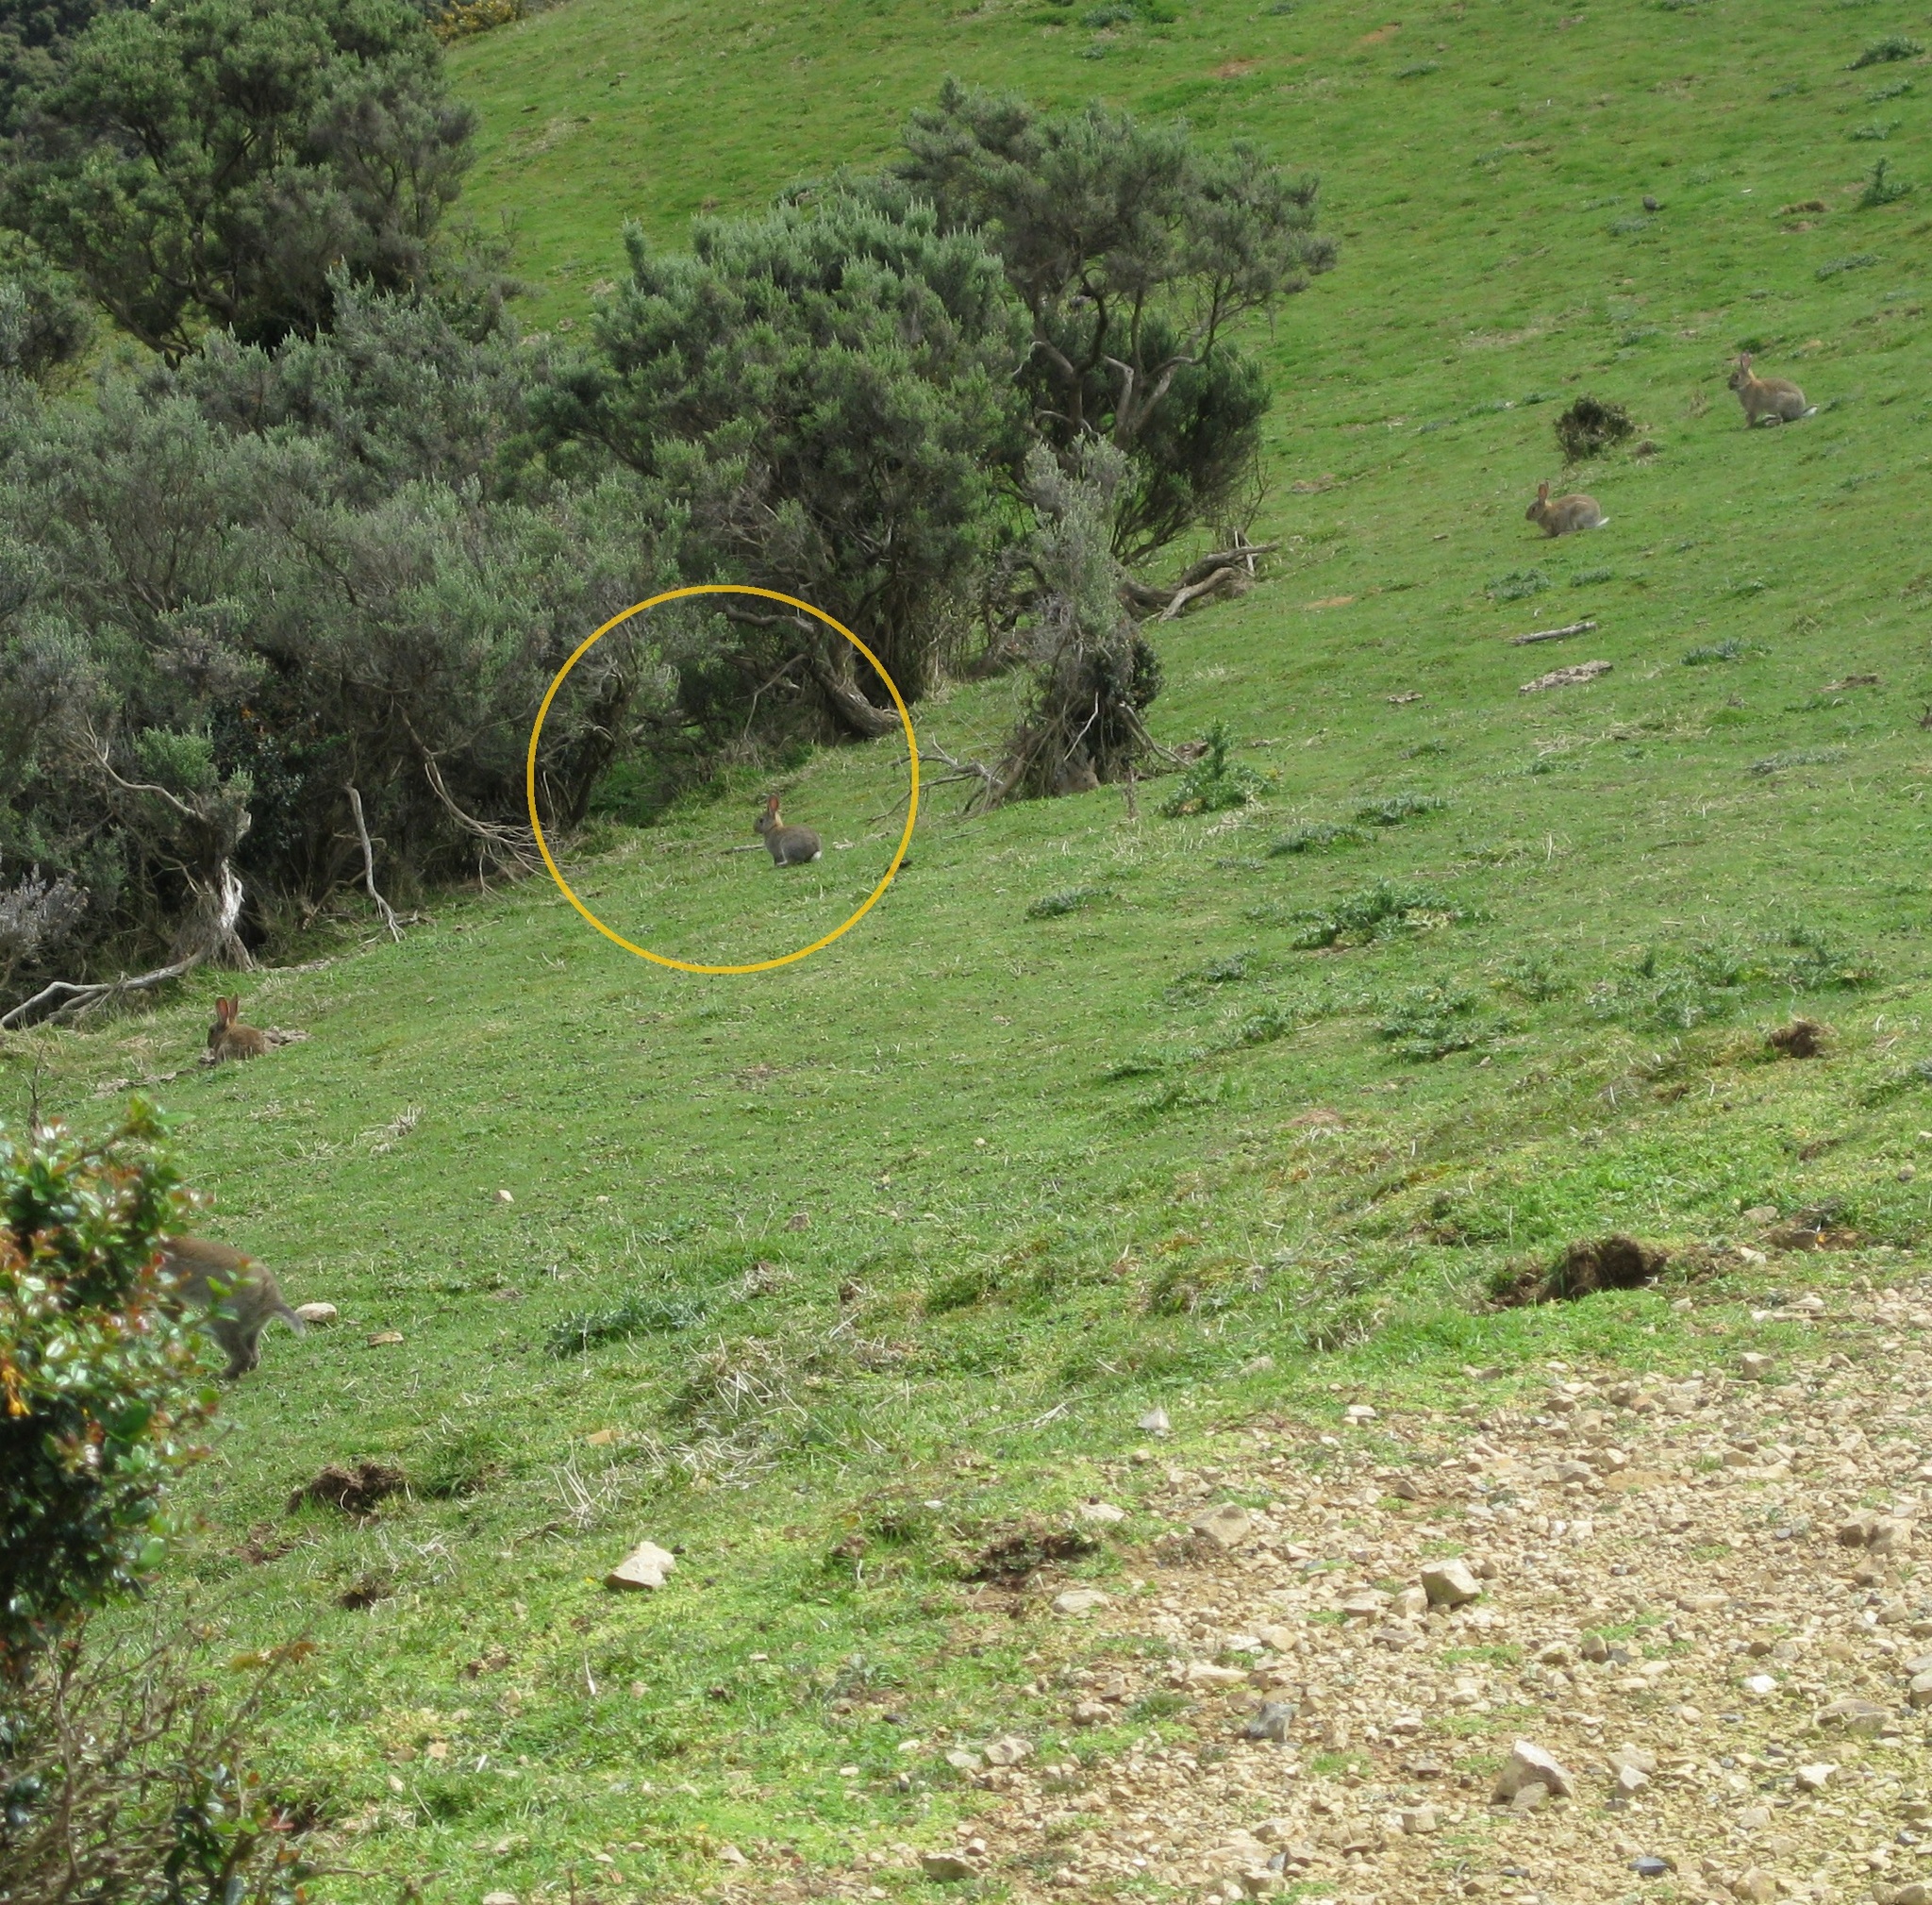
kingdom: Animalia
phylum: Chordata
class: Mammalia
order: Lagomorpha
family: Leporidae
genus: Oryctolagus
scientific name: Oryctolagus cuniculus
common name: European rabbit
